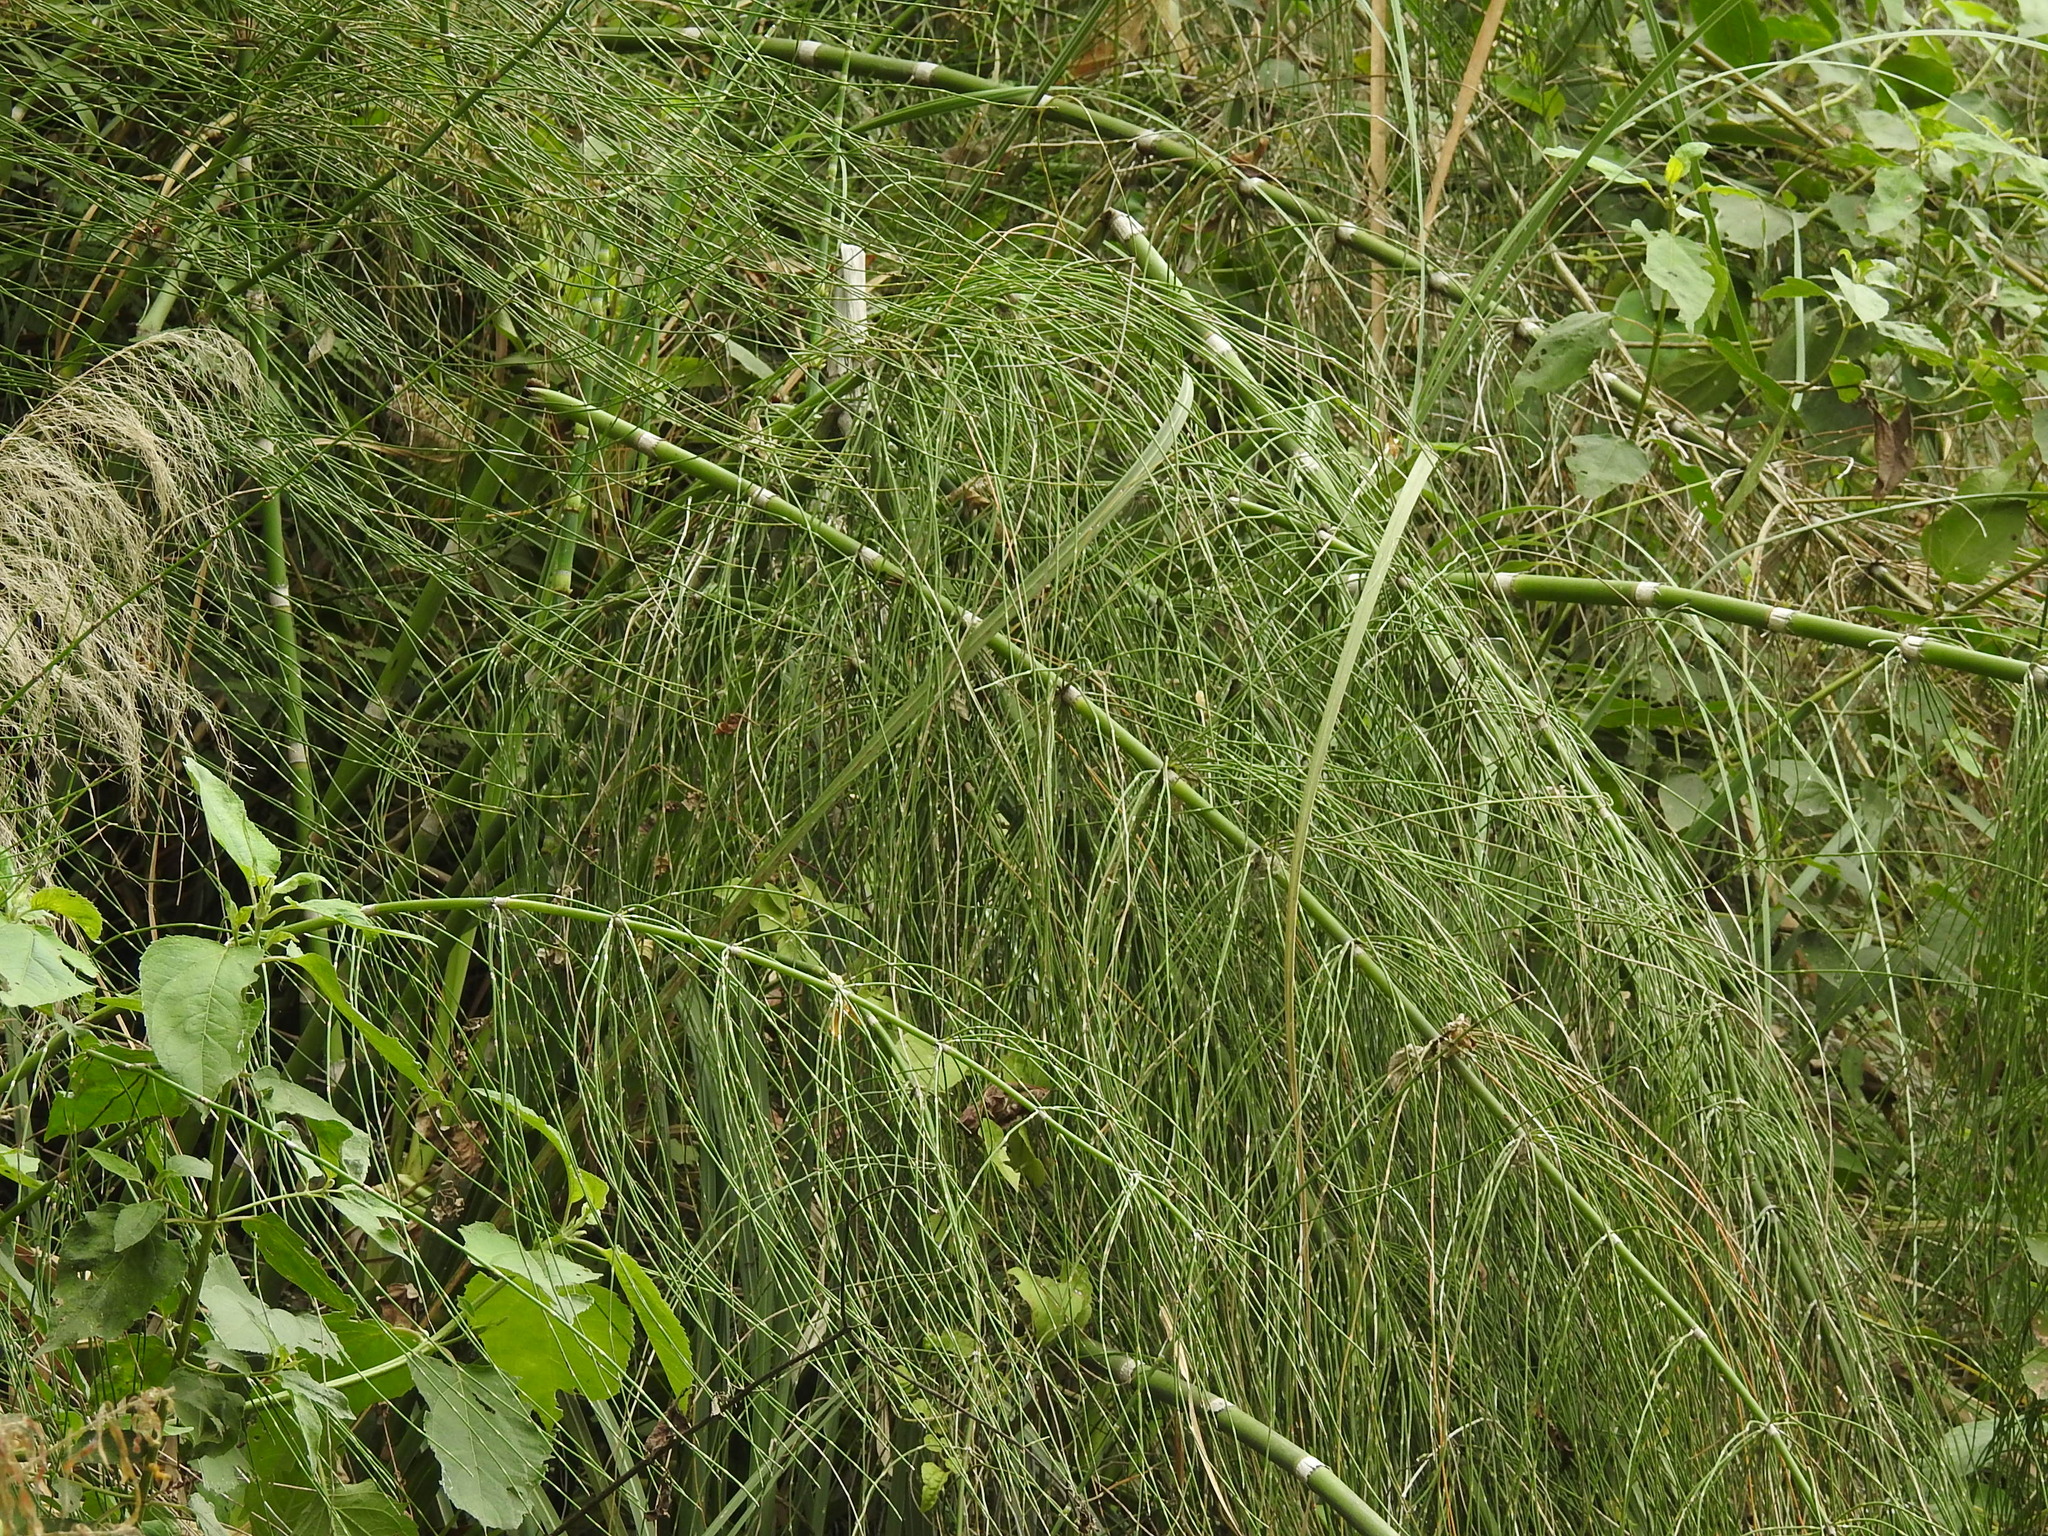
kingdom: Plantae
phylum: Tracheophyta
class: Polypodiopsida
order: Equisetales
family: Equisetaceae
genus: Equisetum
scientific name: Equisetum giganteum
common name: Giant horsetail
